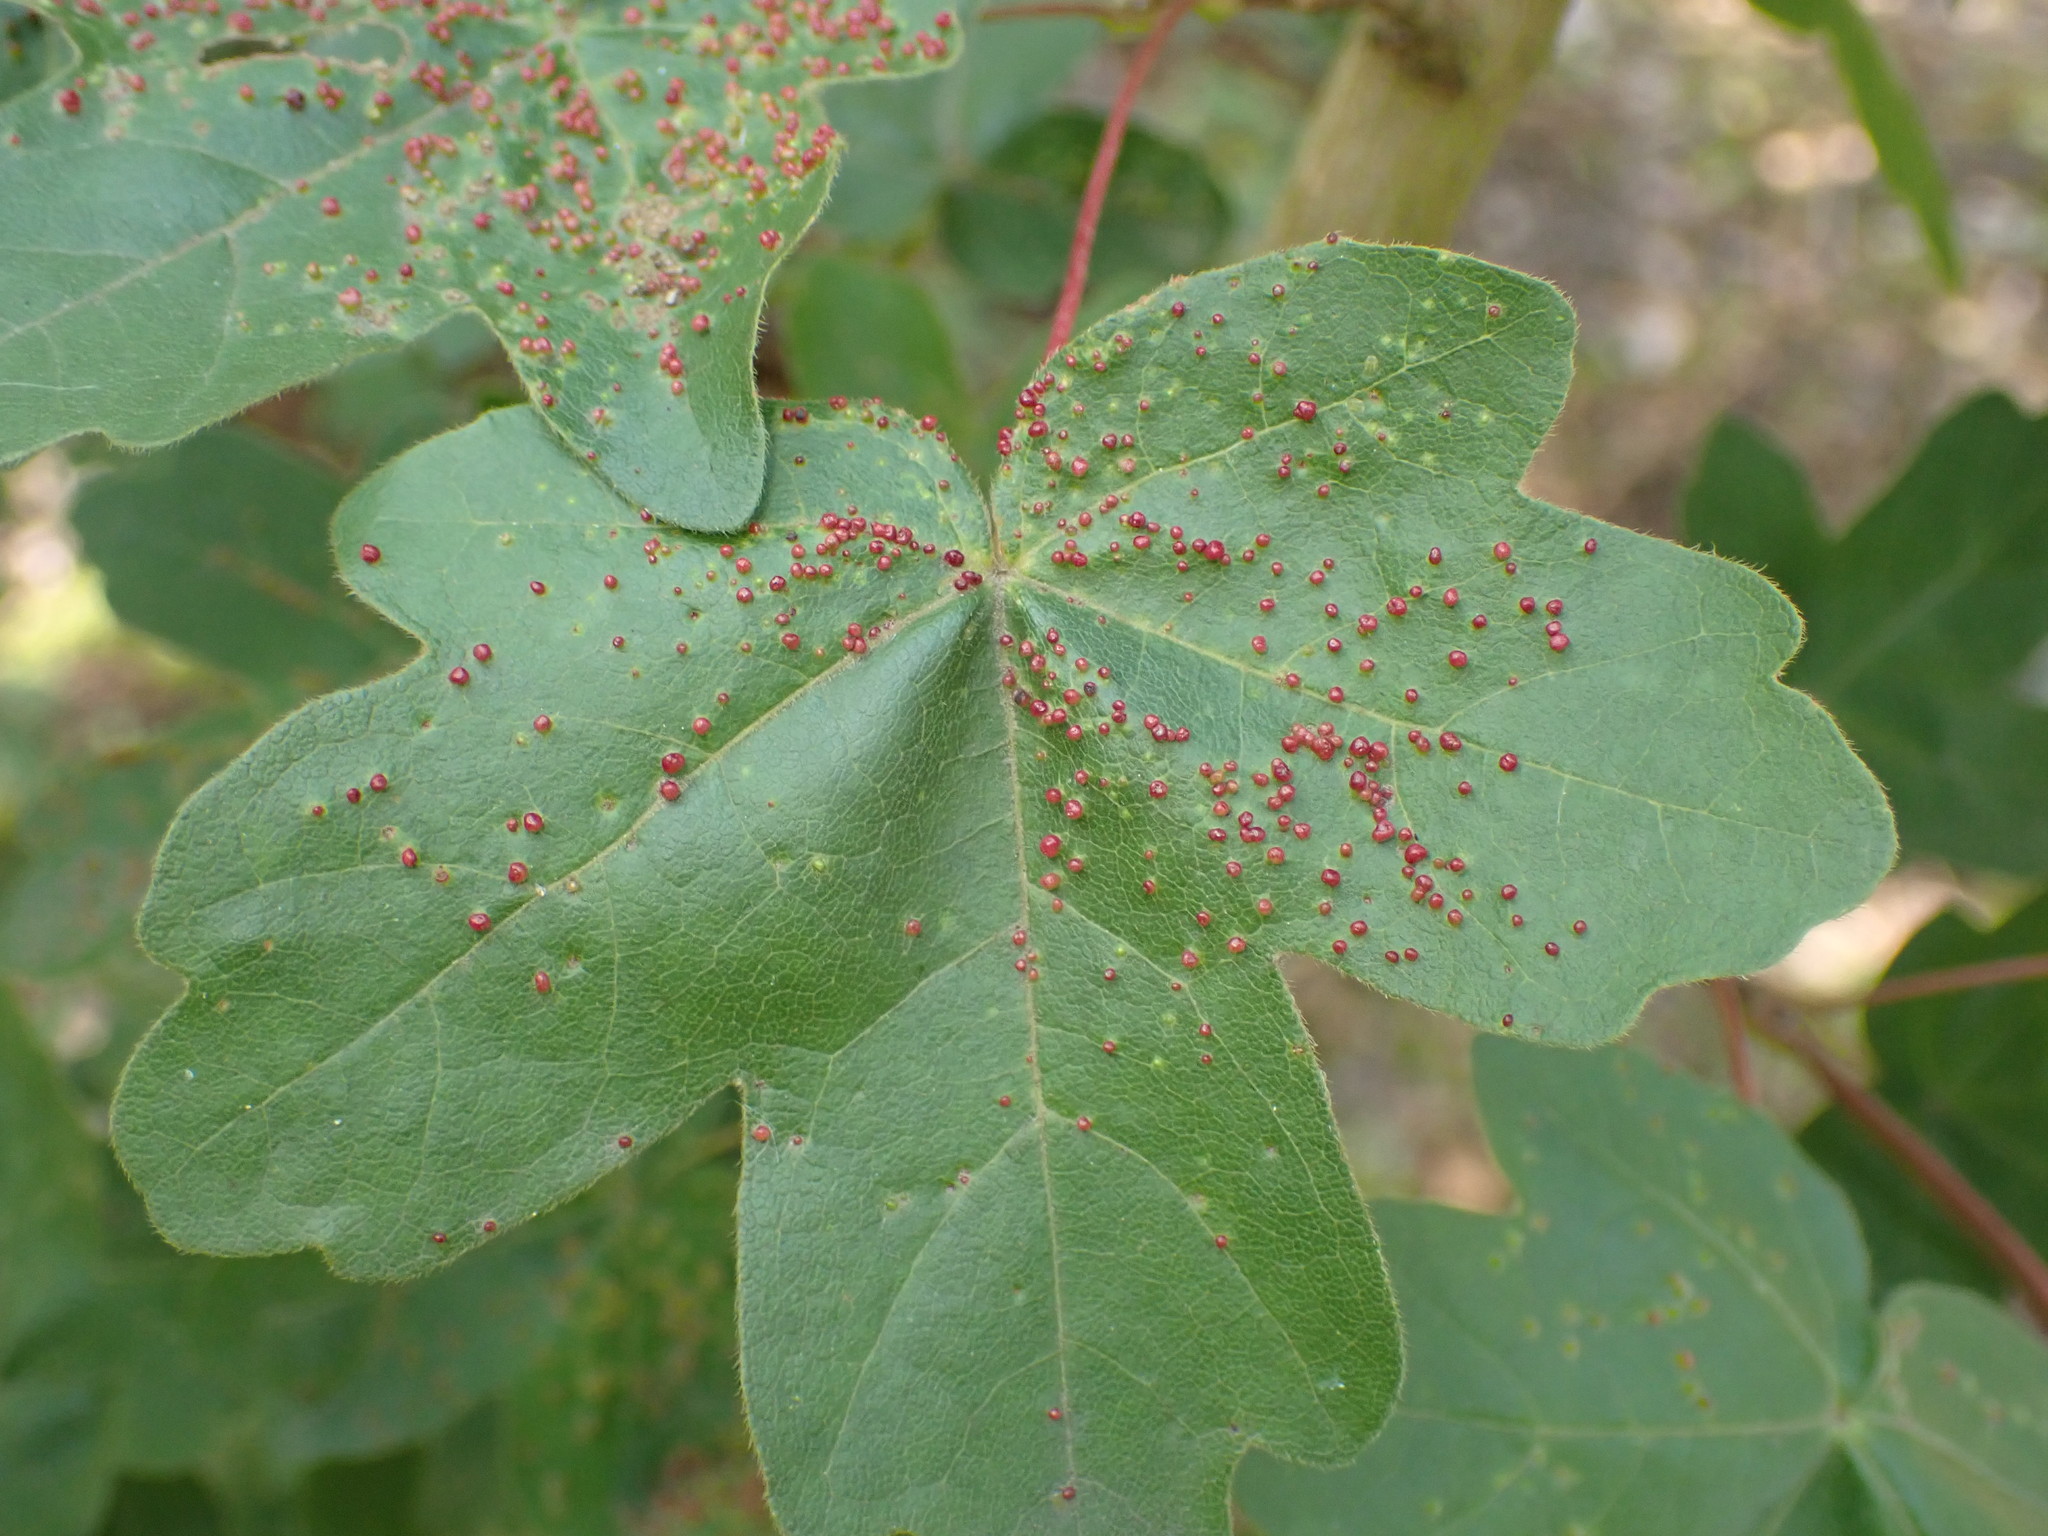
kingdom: Animalia
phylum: Arthropoda
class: Arachnida
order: Trombidiformes
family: Eriophyidae
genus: Aceria
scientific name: Aceria myriadeum
